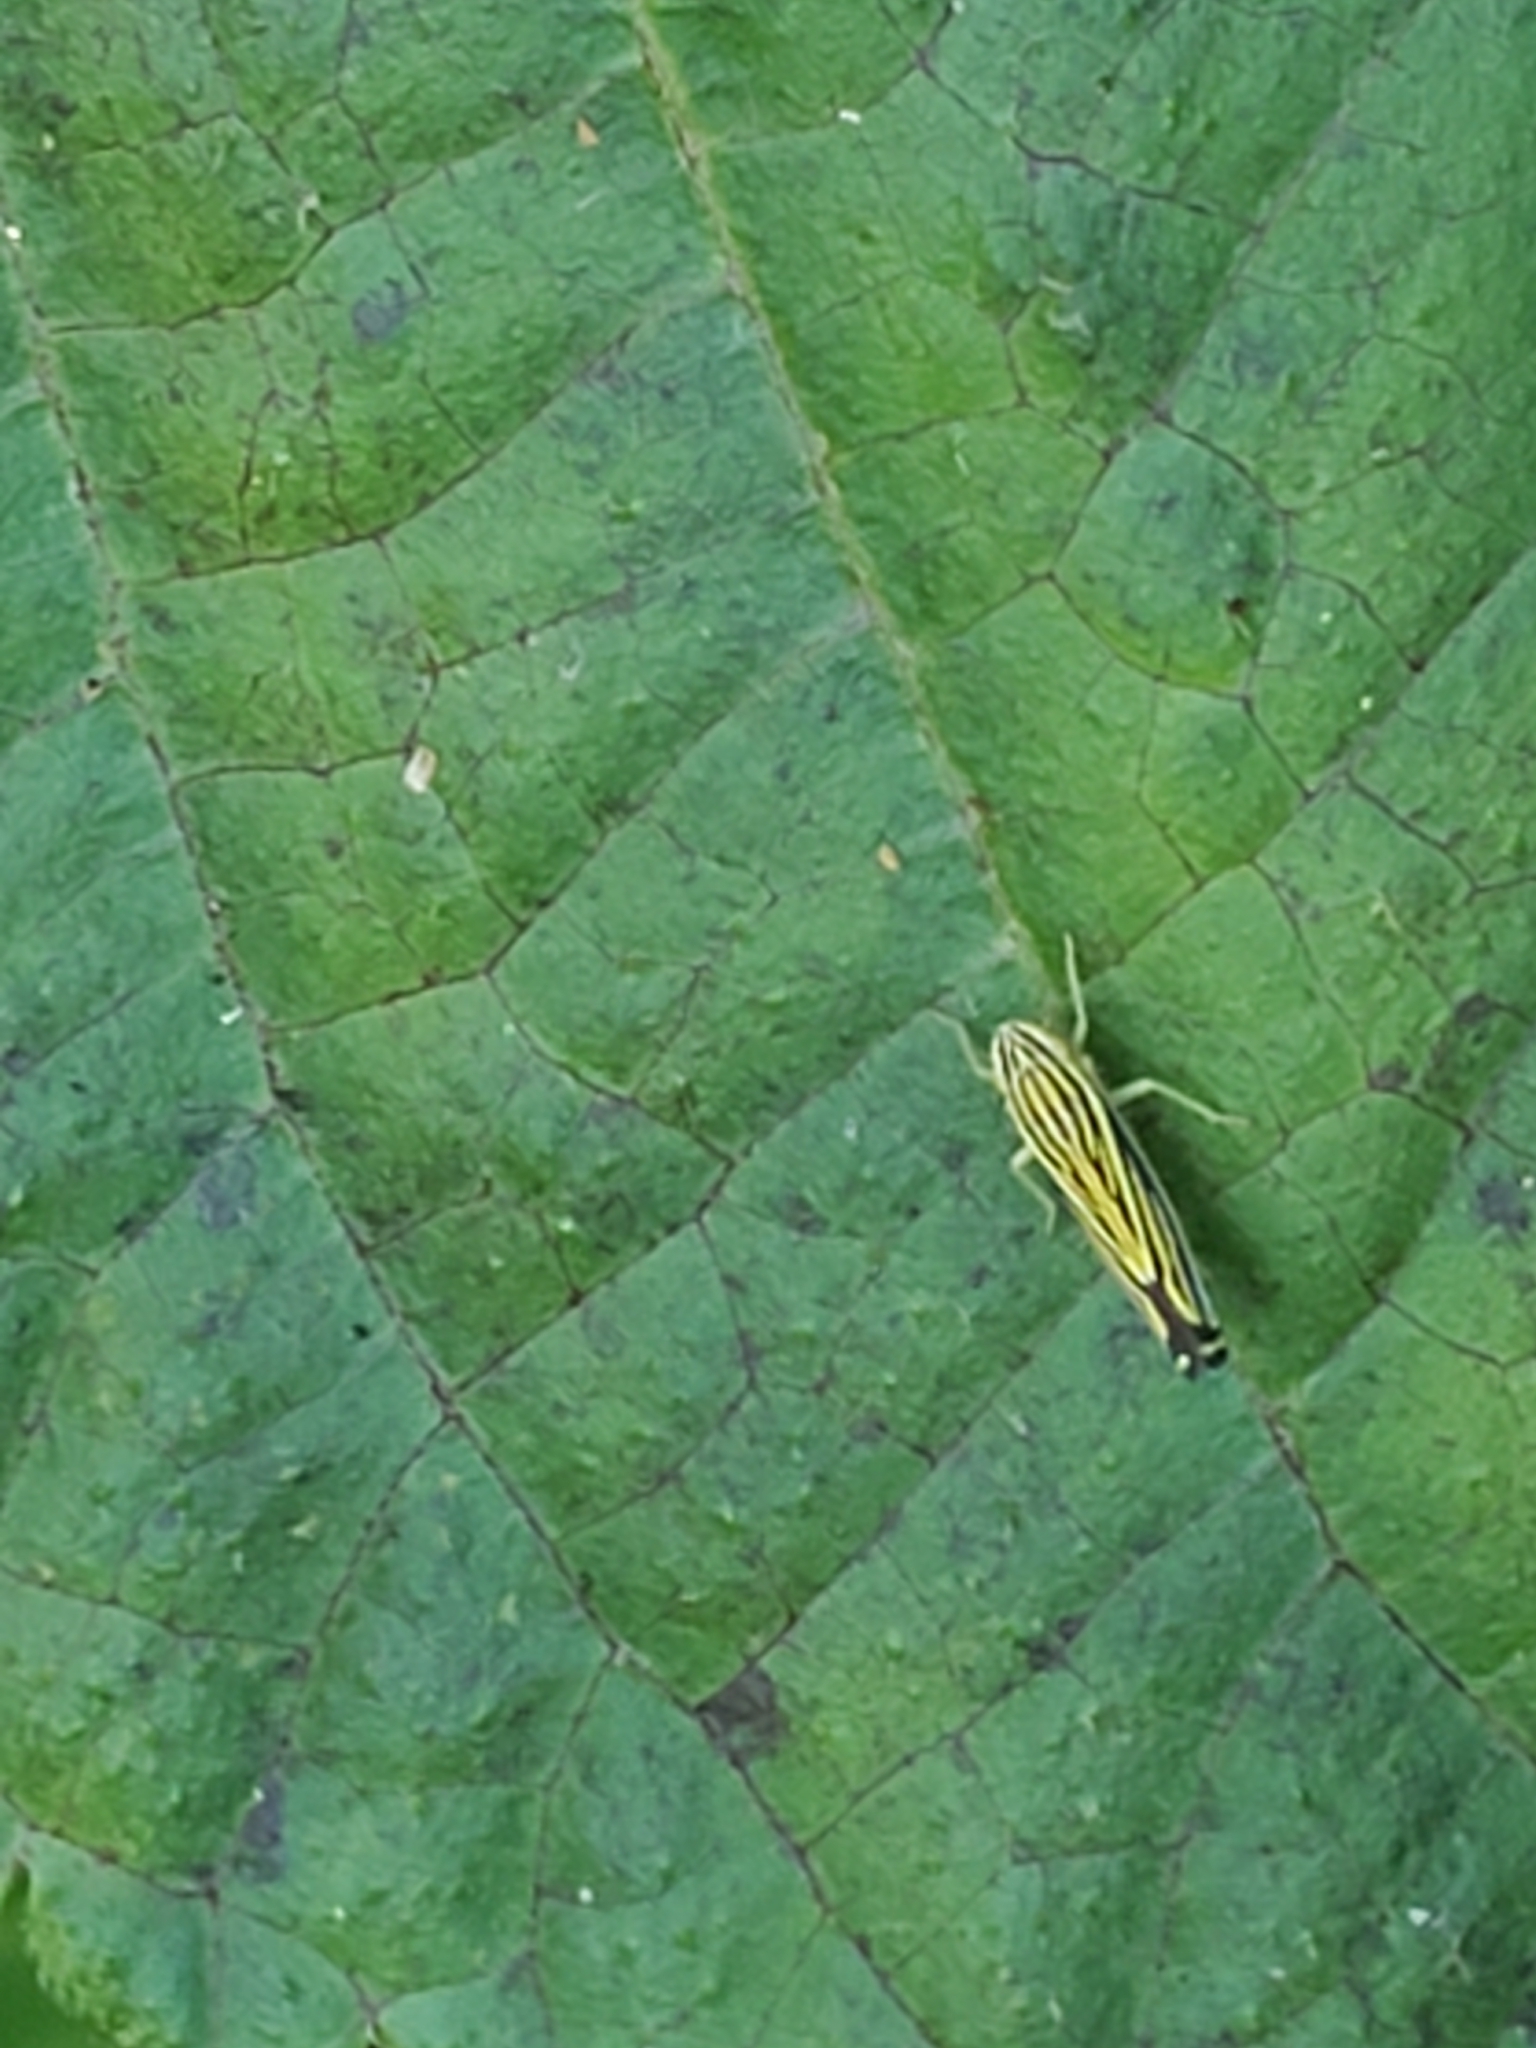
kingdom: Animalia
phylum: Arthropoda
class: Insecta
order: Hemiptera
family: Cicadellidae
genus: Sibovia
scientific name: Sibovia occatoria
